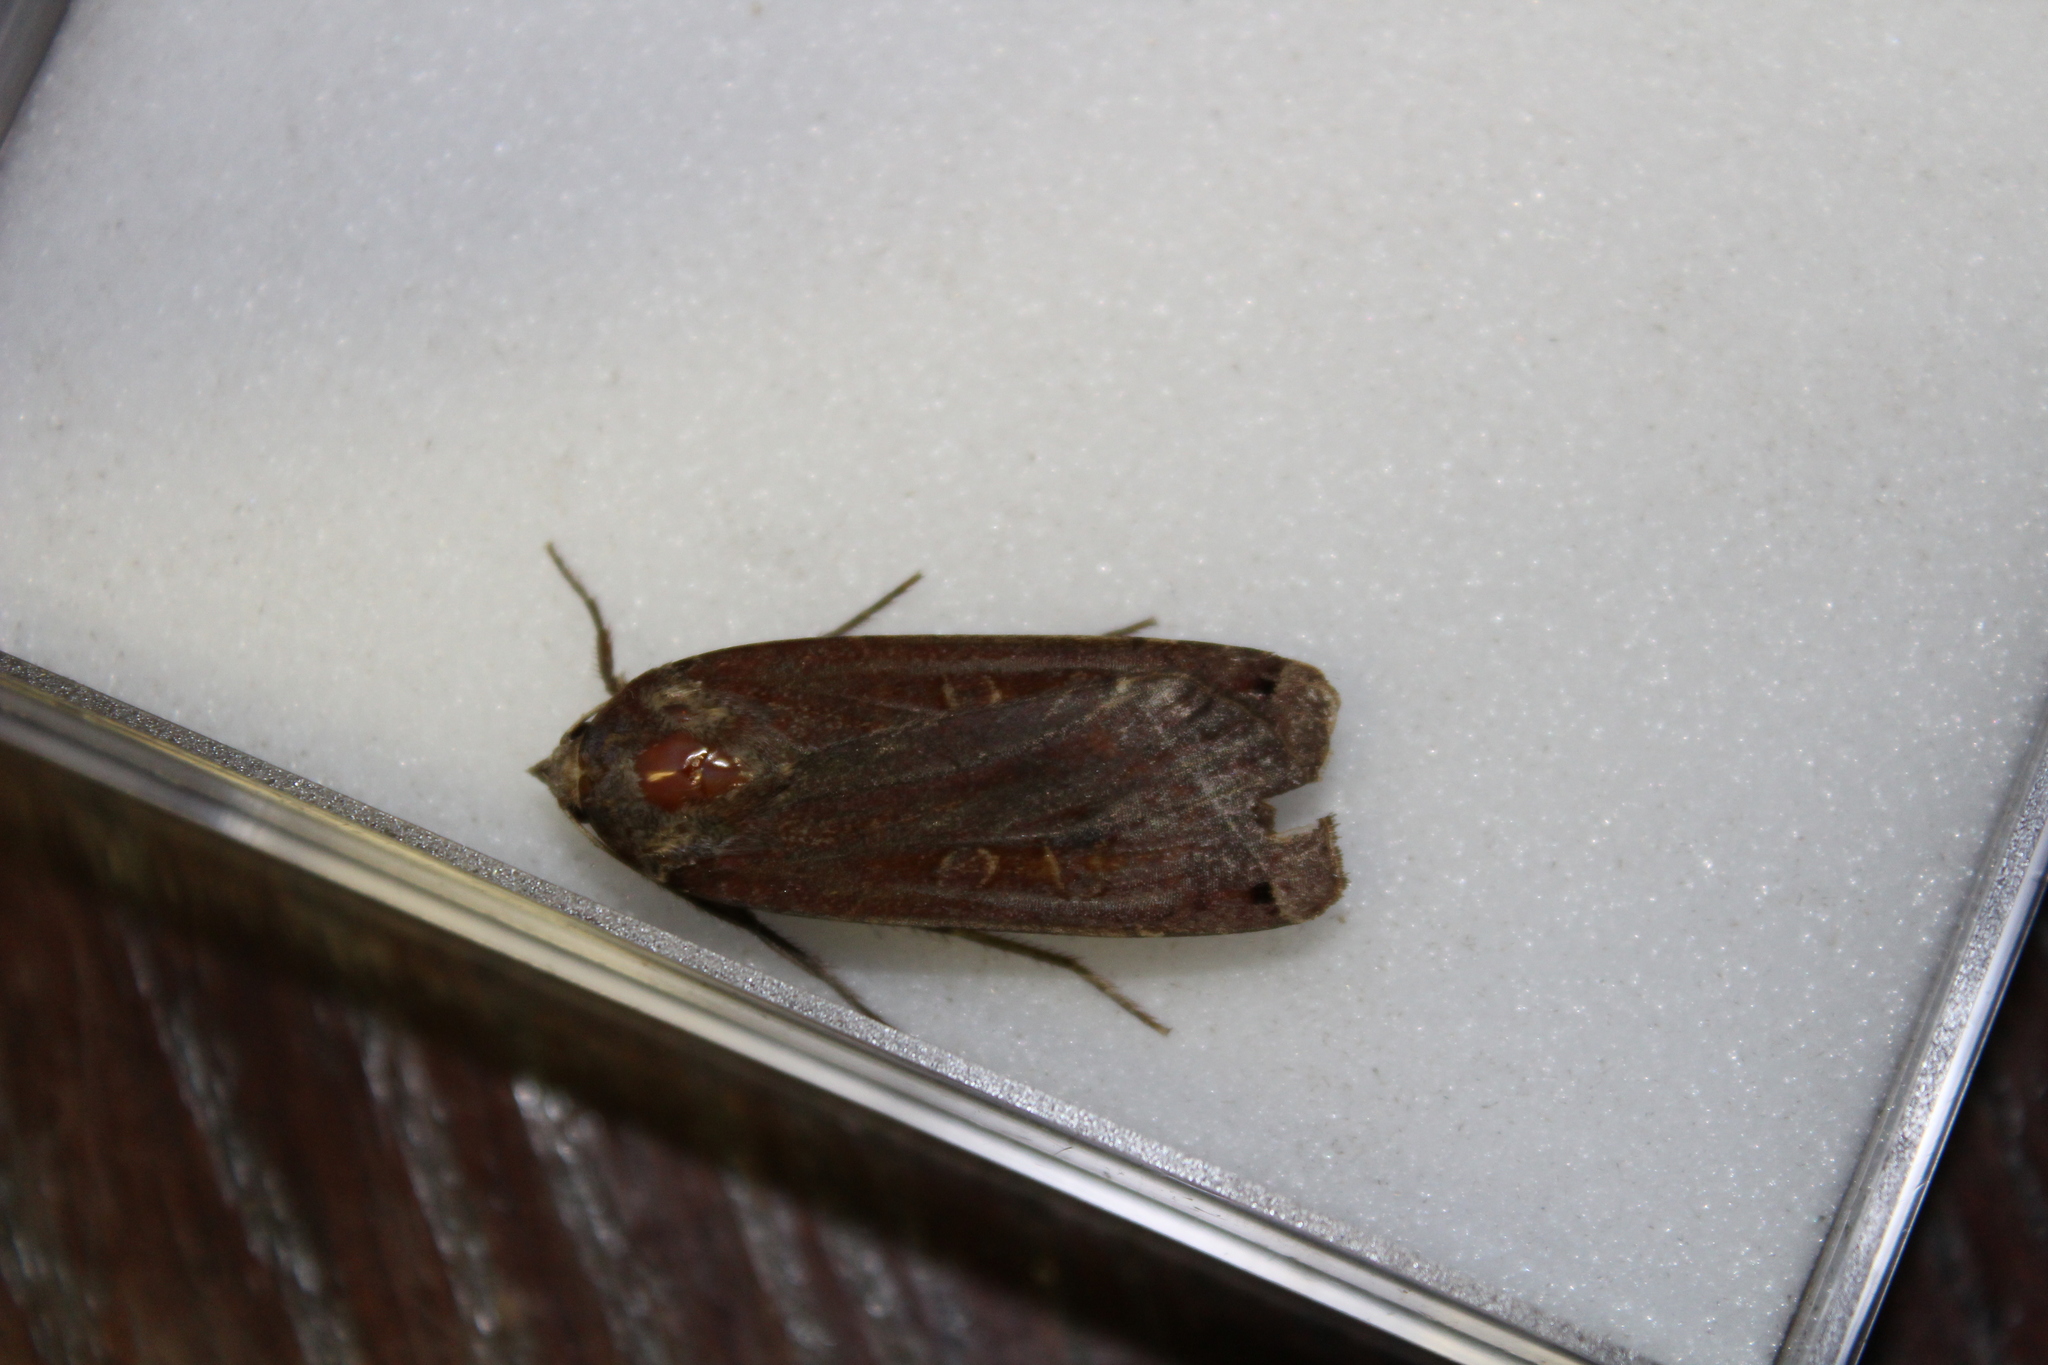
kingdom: Animalia
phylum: Arthropoda
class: Insecta
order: Lepidoptera
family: Noctuidae
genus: Noctua
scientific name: Noctua pronuba
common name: Large yellow underwing
